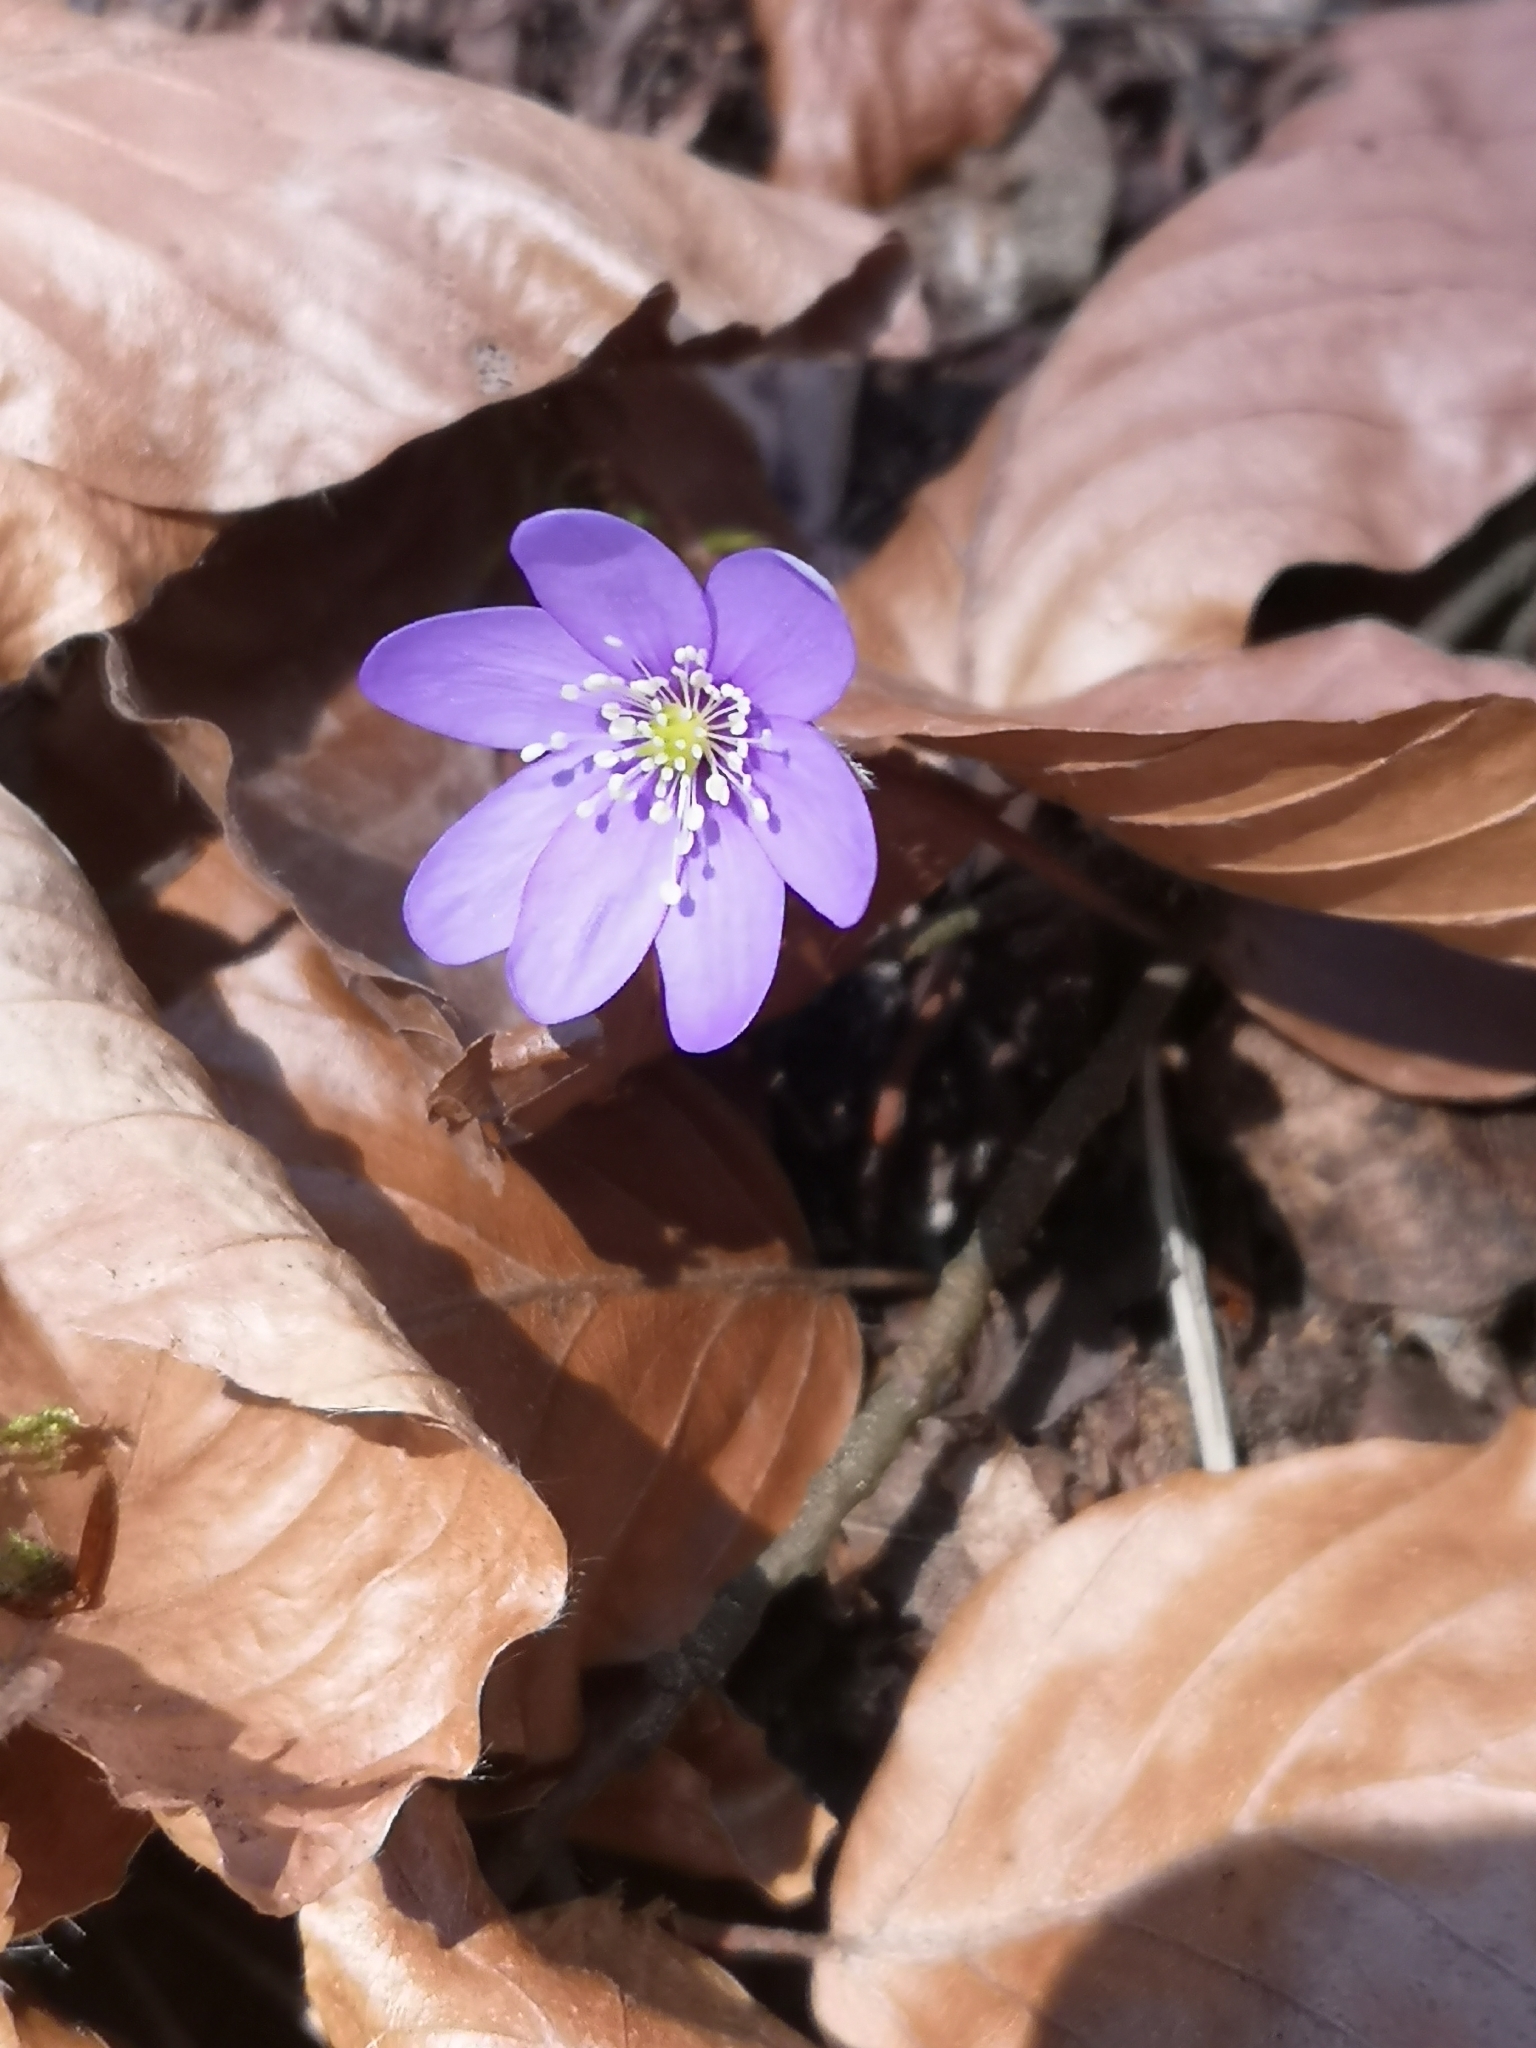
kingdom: Plantae
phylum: Tracheophyta
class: Magnoliopsida
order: Ranunculales
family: Ranunculaceae
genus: Hepatica
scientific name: Hepatica nobilis
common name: Liverleaf
